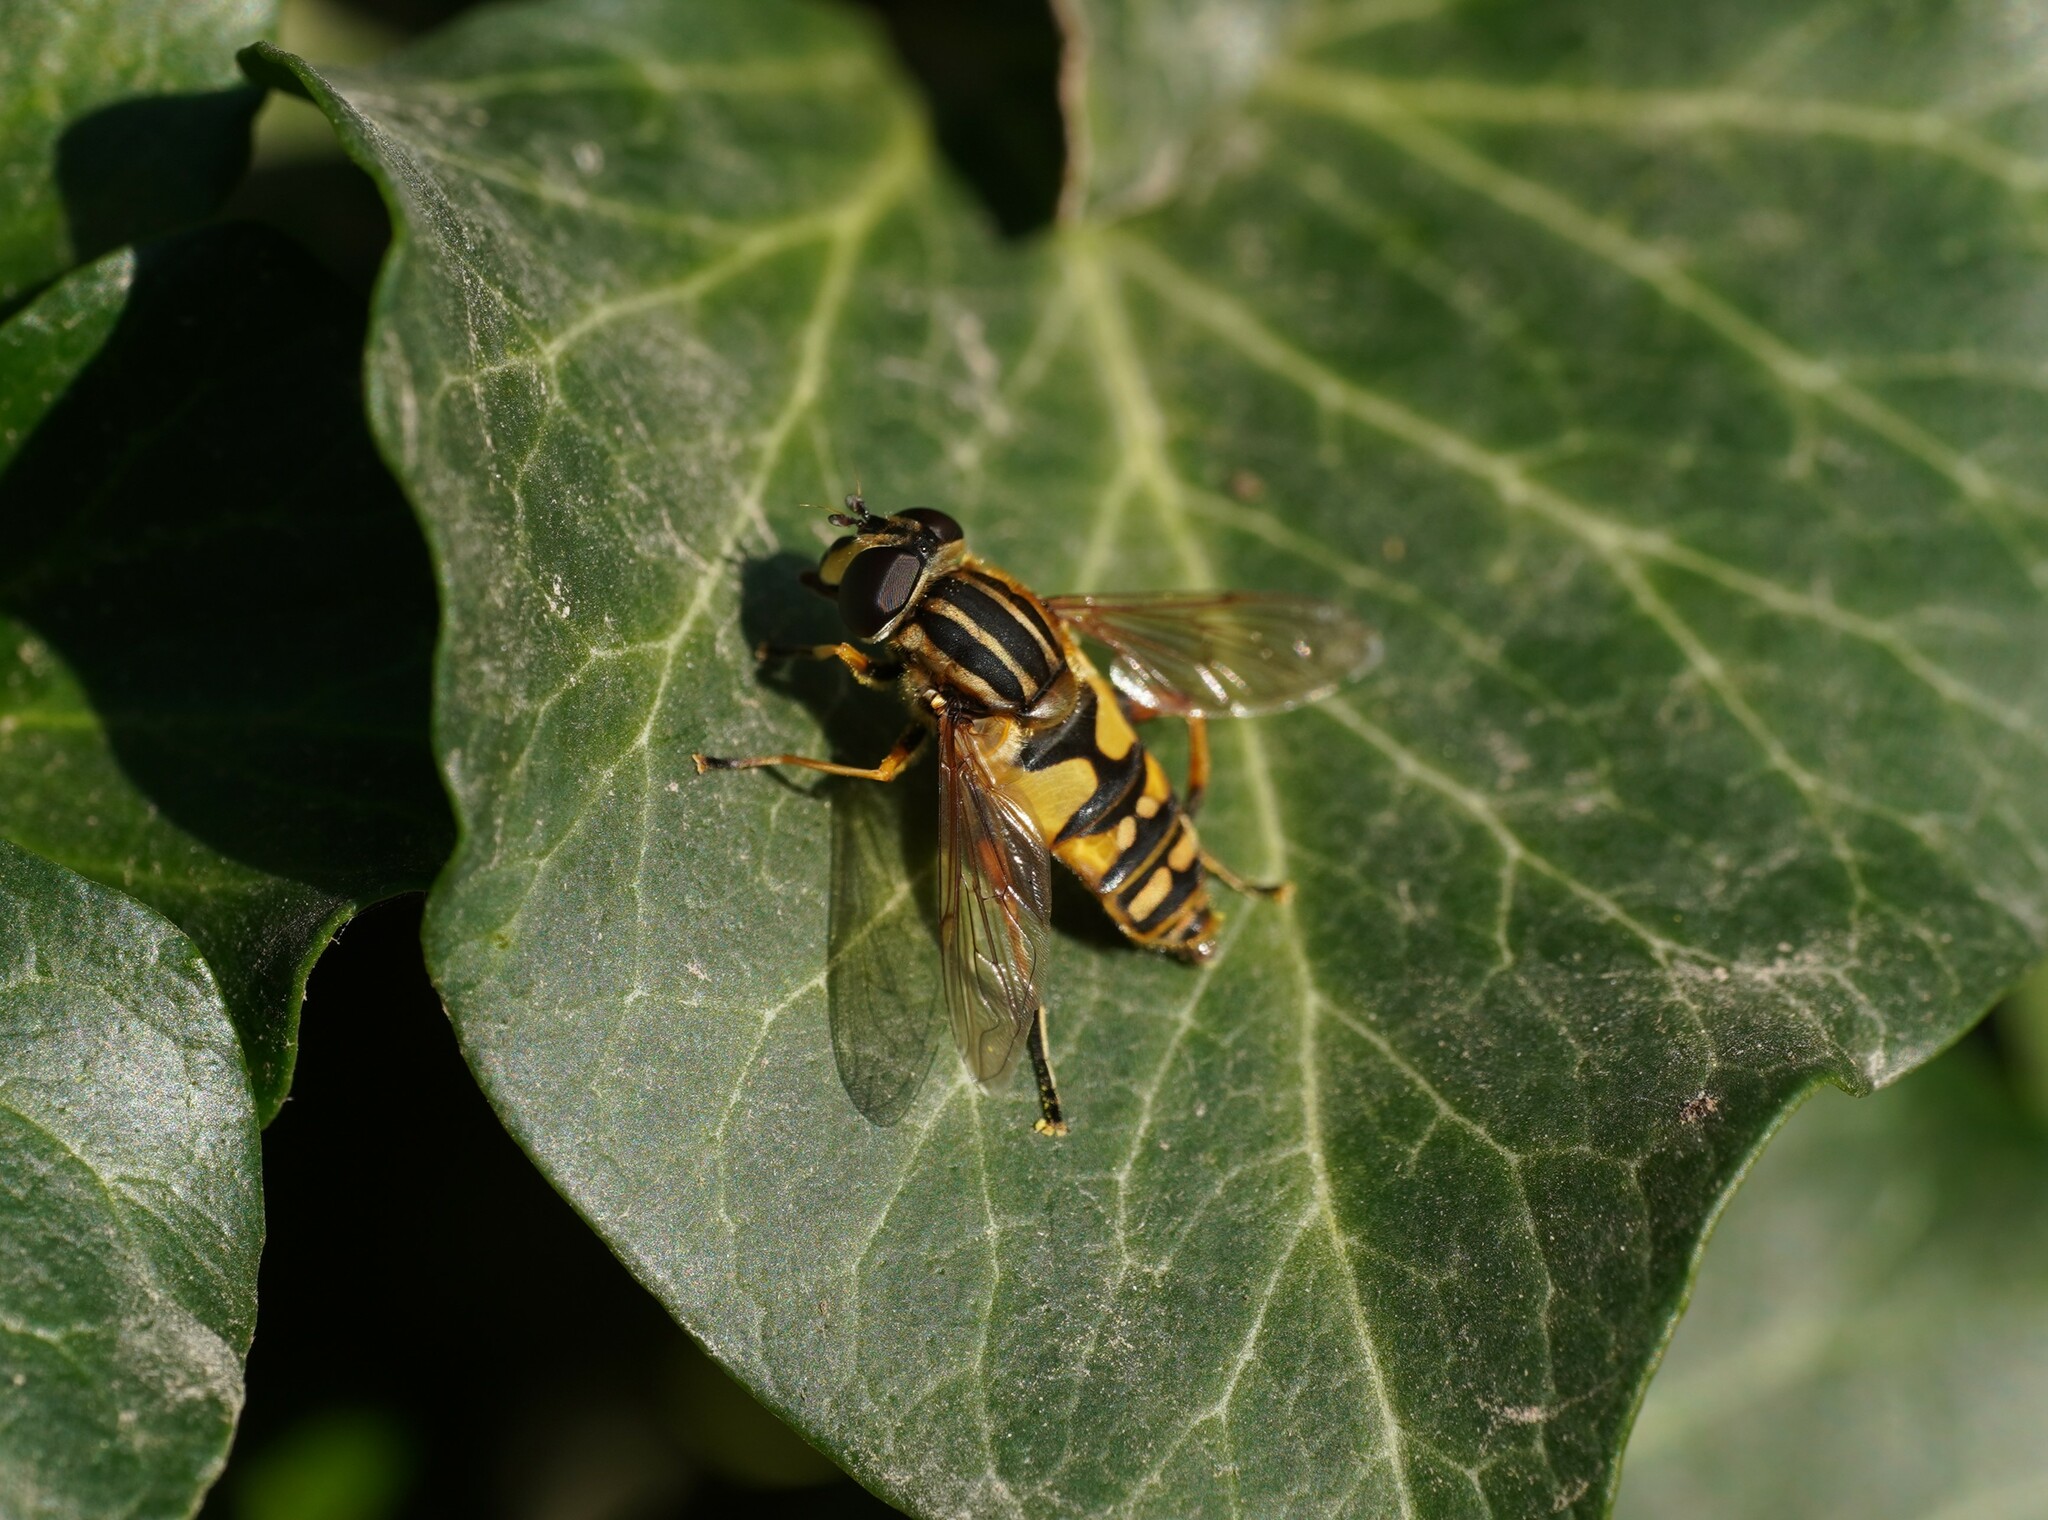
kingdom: Animalia
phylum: Arthropoda
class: Insecta
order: Diptera
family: Syrphidae
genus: Helophilus
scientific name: Helophilus pendulus
